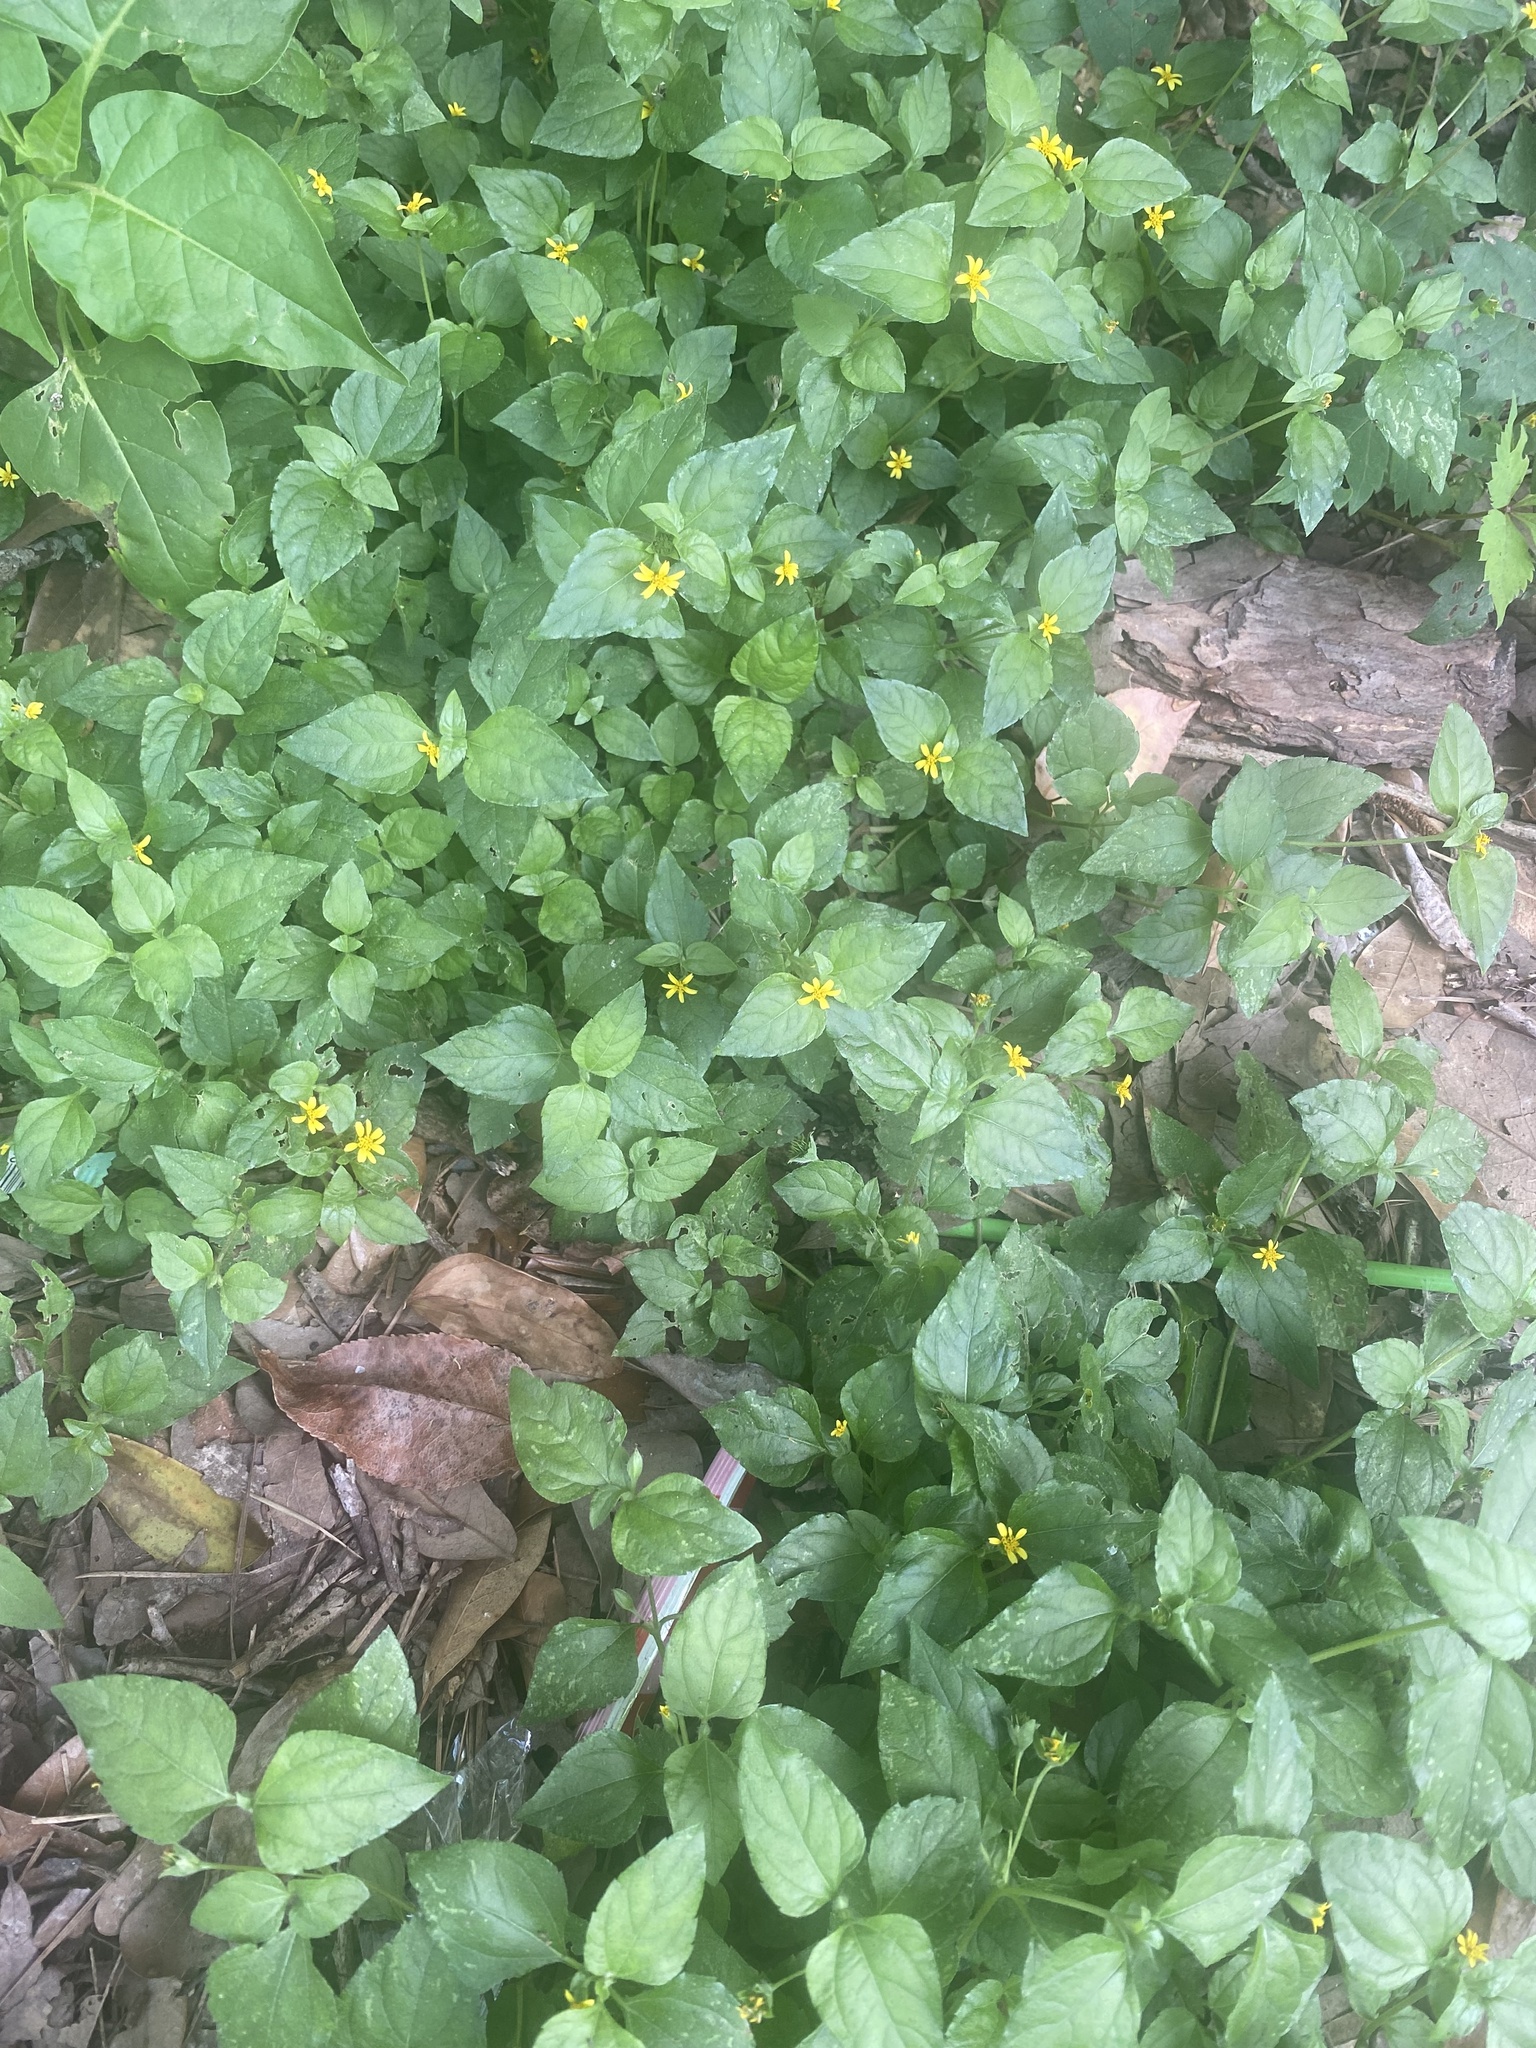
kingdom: Plantae
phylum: Tracheophyta
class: Magnoliopsida
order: Asterales
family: Asteraceae
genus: Calyptocarpus
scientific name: Calyptocarpus vialis
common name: Straggler daisy
